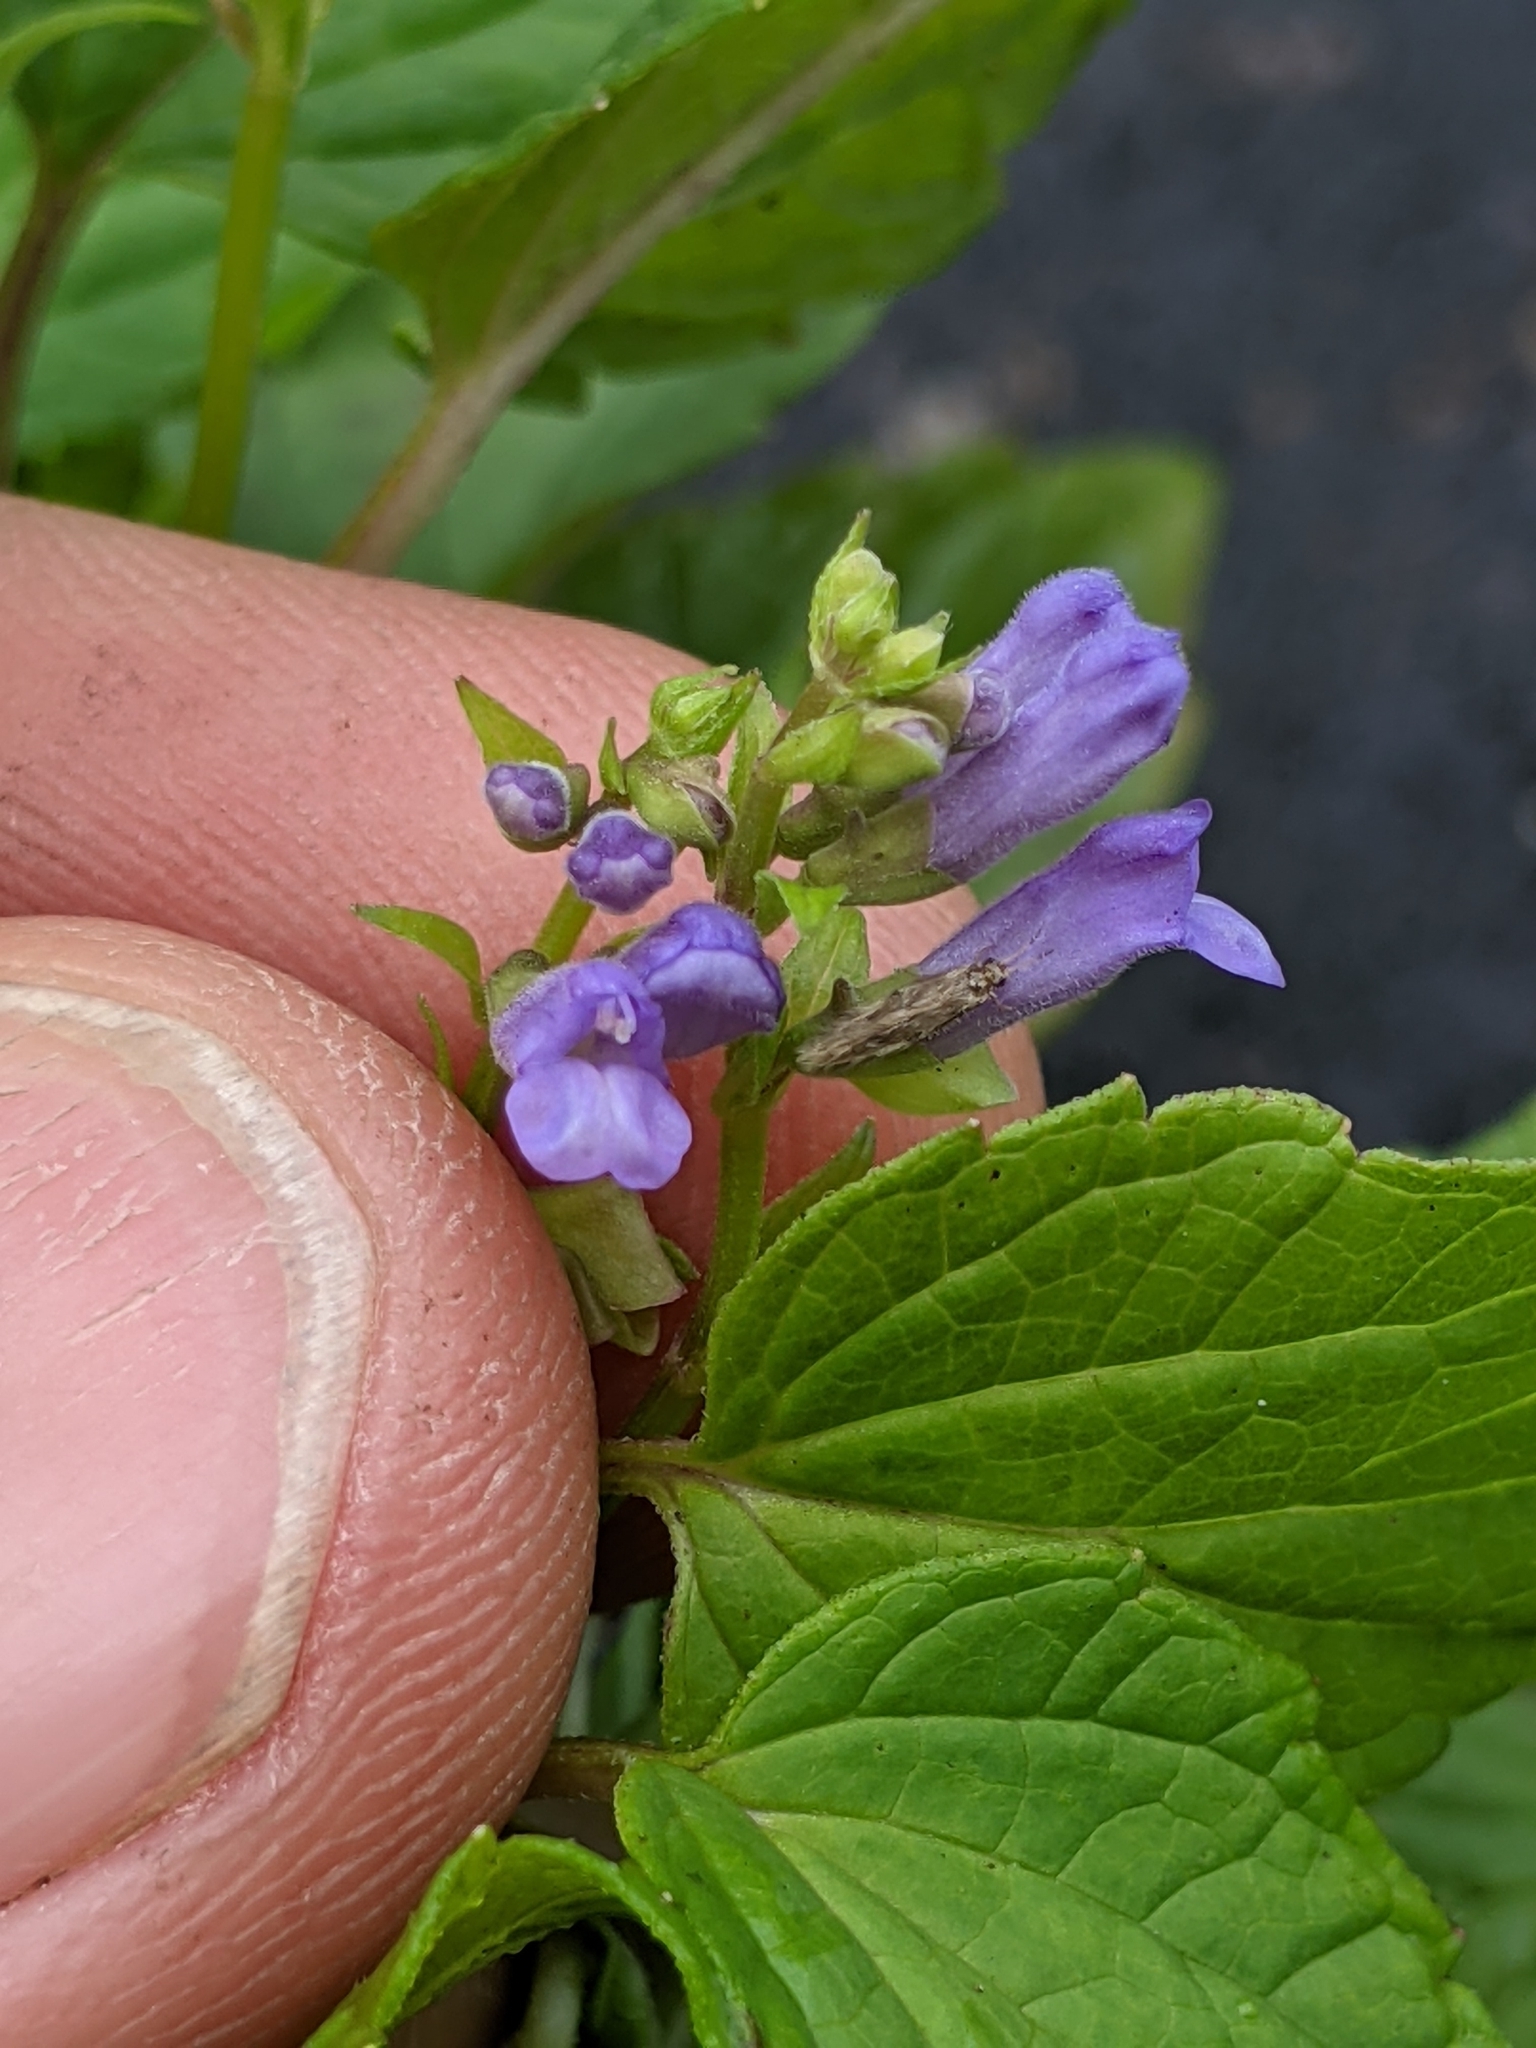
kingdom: Plantae
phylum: Tracheophyta
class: Magnoliopsida
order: Lamiales
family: Lamiaceae
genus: Scutellaria
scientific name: Scutellaria lateriflora
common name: Blue skullcap
